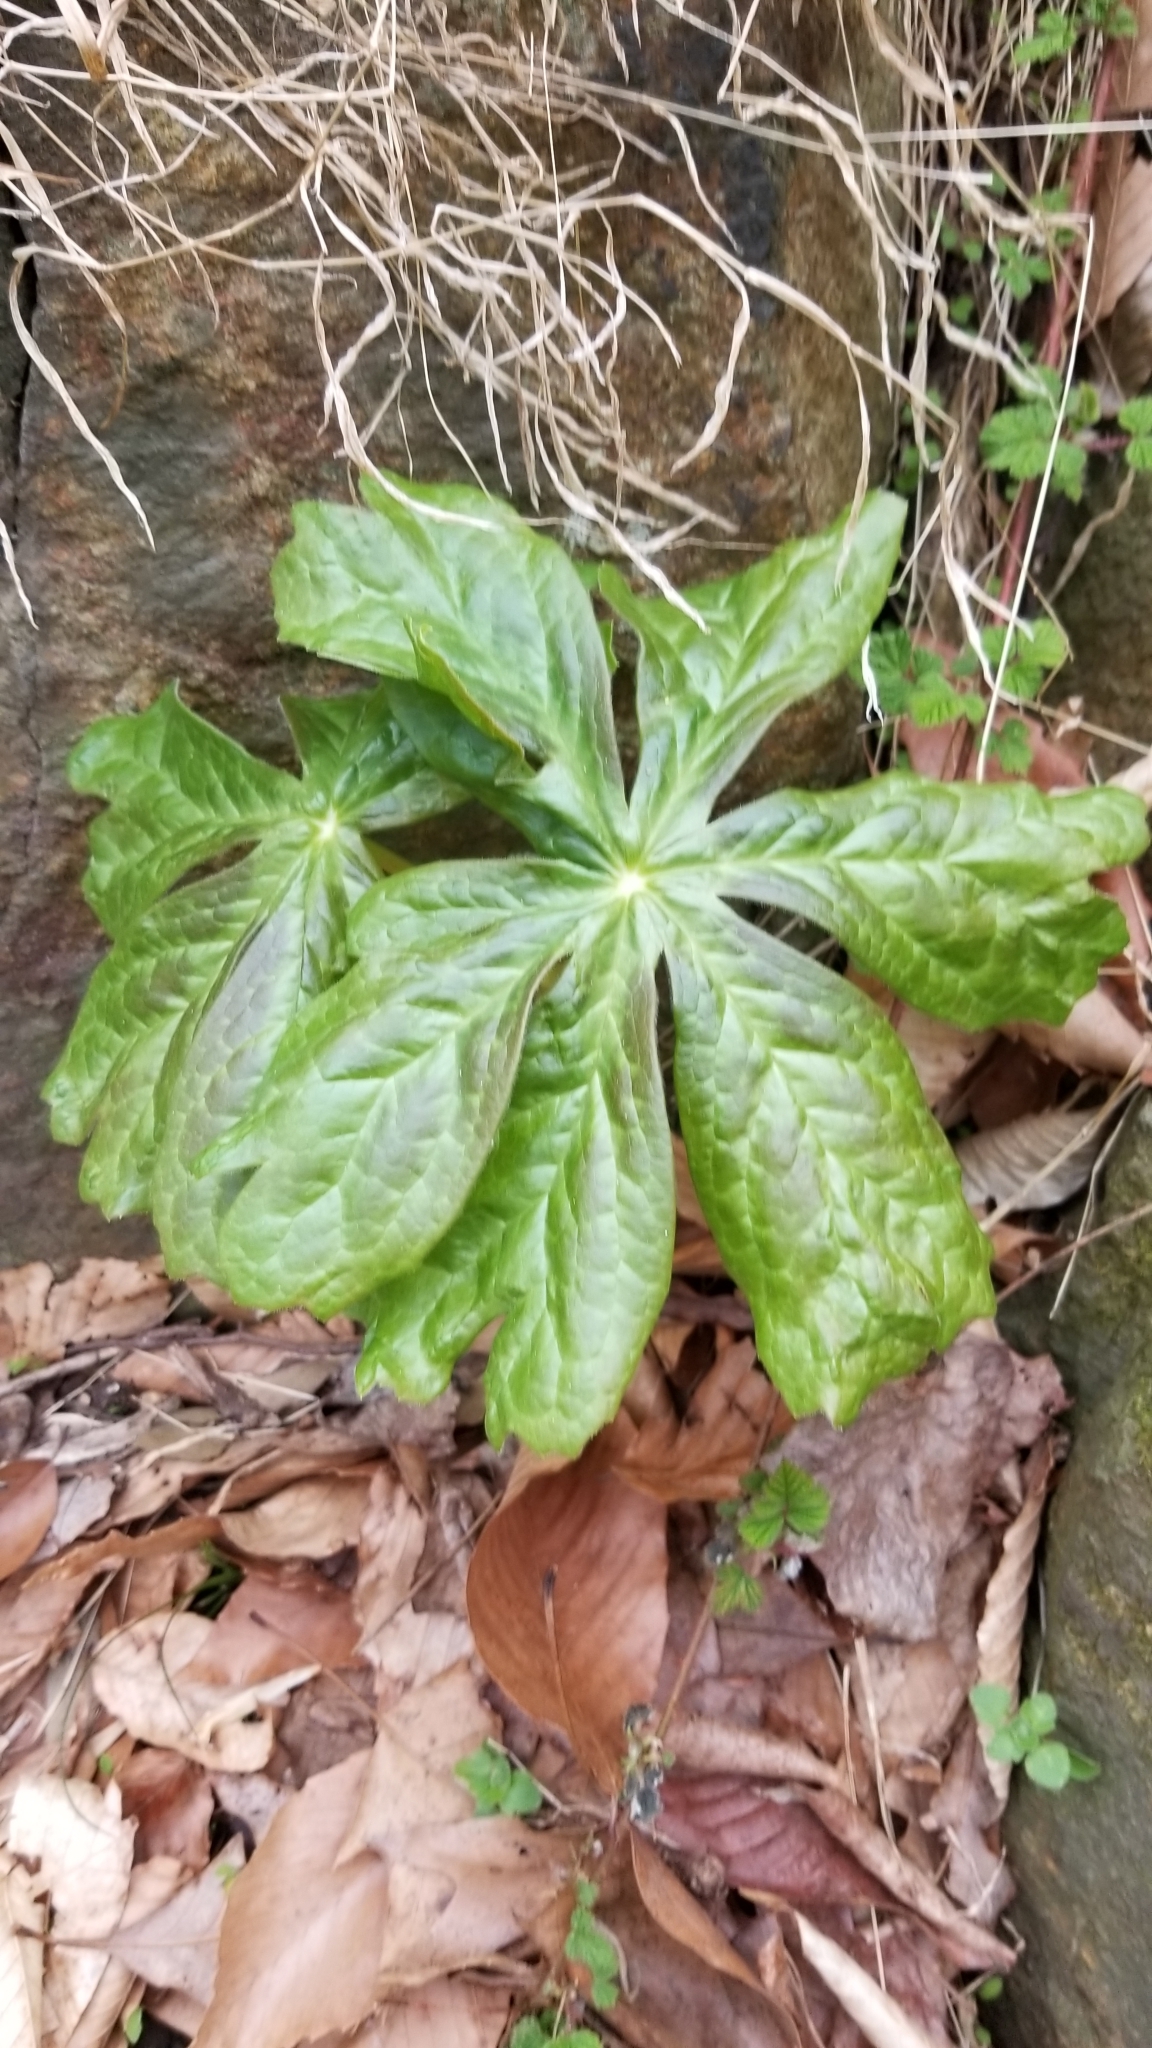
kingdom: Plantae
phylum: Tracheophyta
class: Magnoliopsida
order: Ranunculales
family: Berberidaceae
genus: Podophyllum
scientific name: Podophyllum peltatum
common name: Wild mandrake
